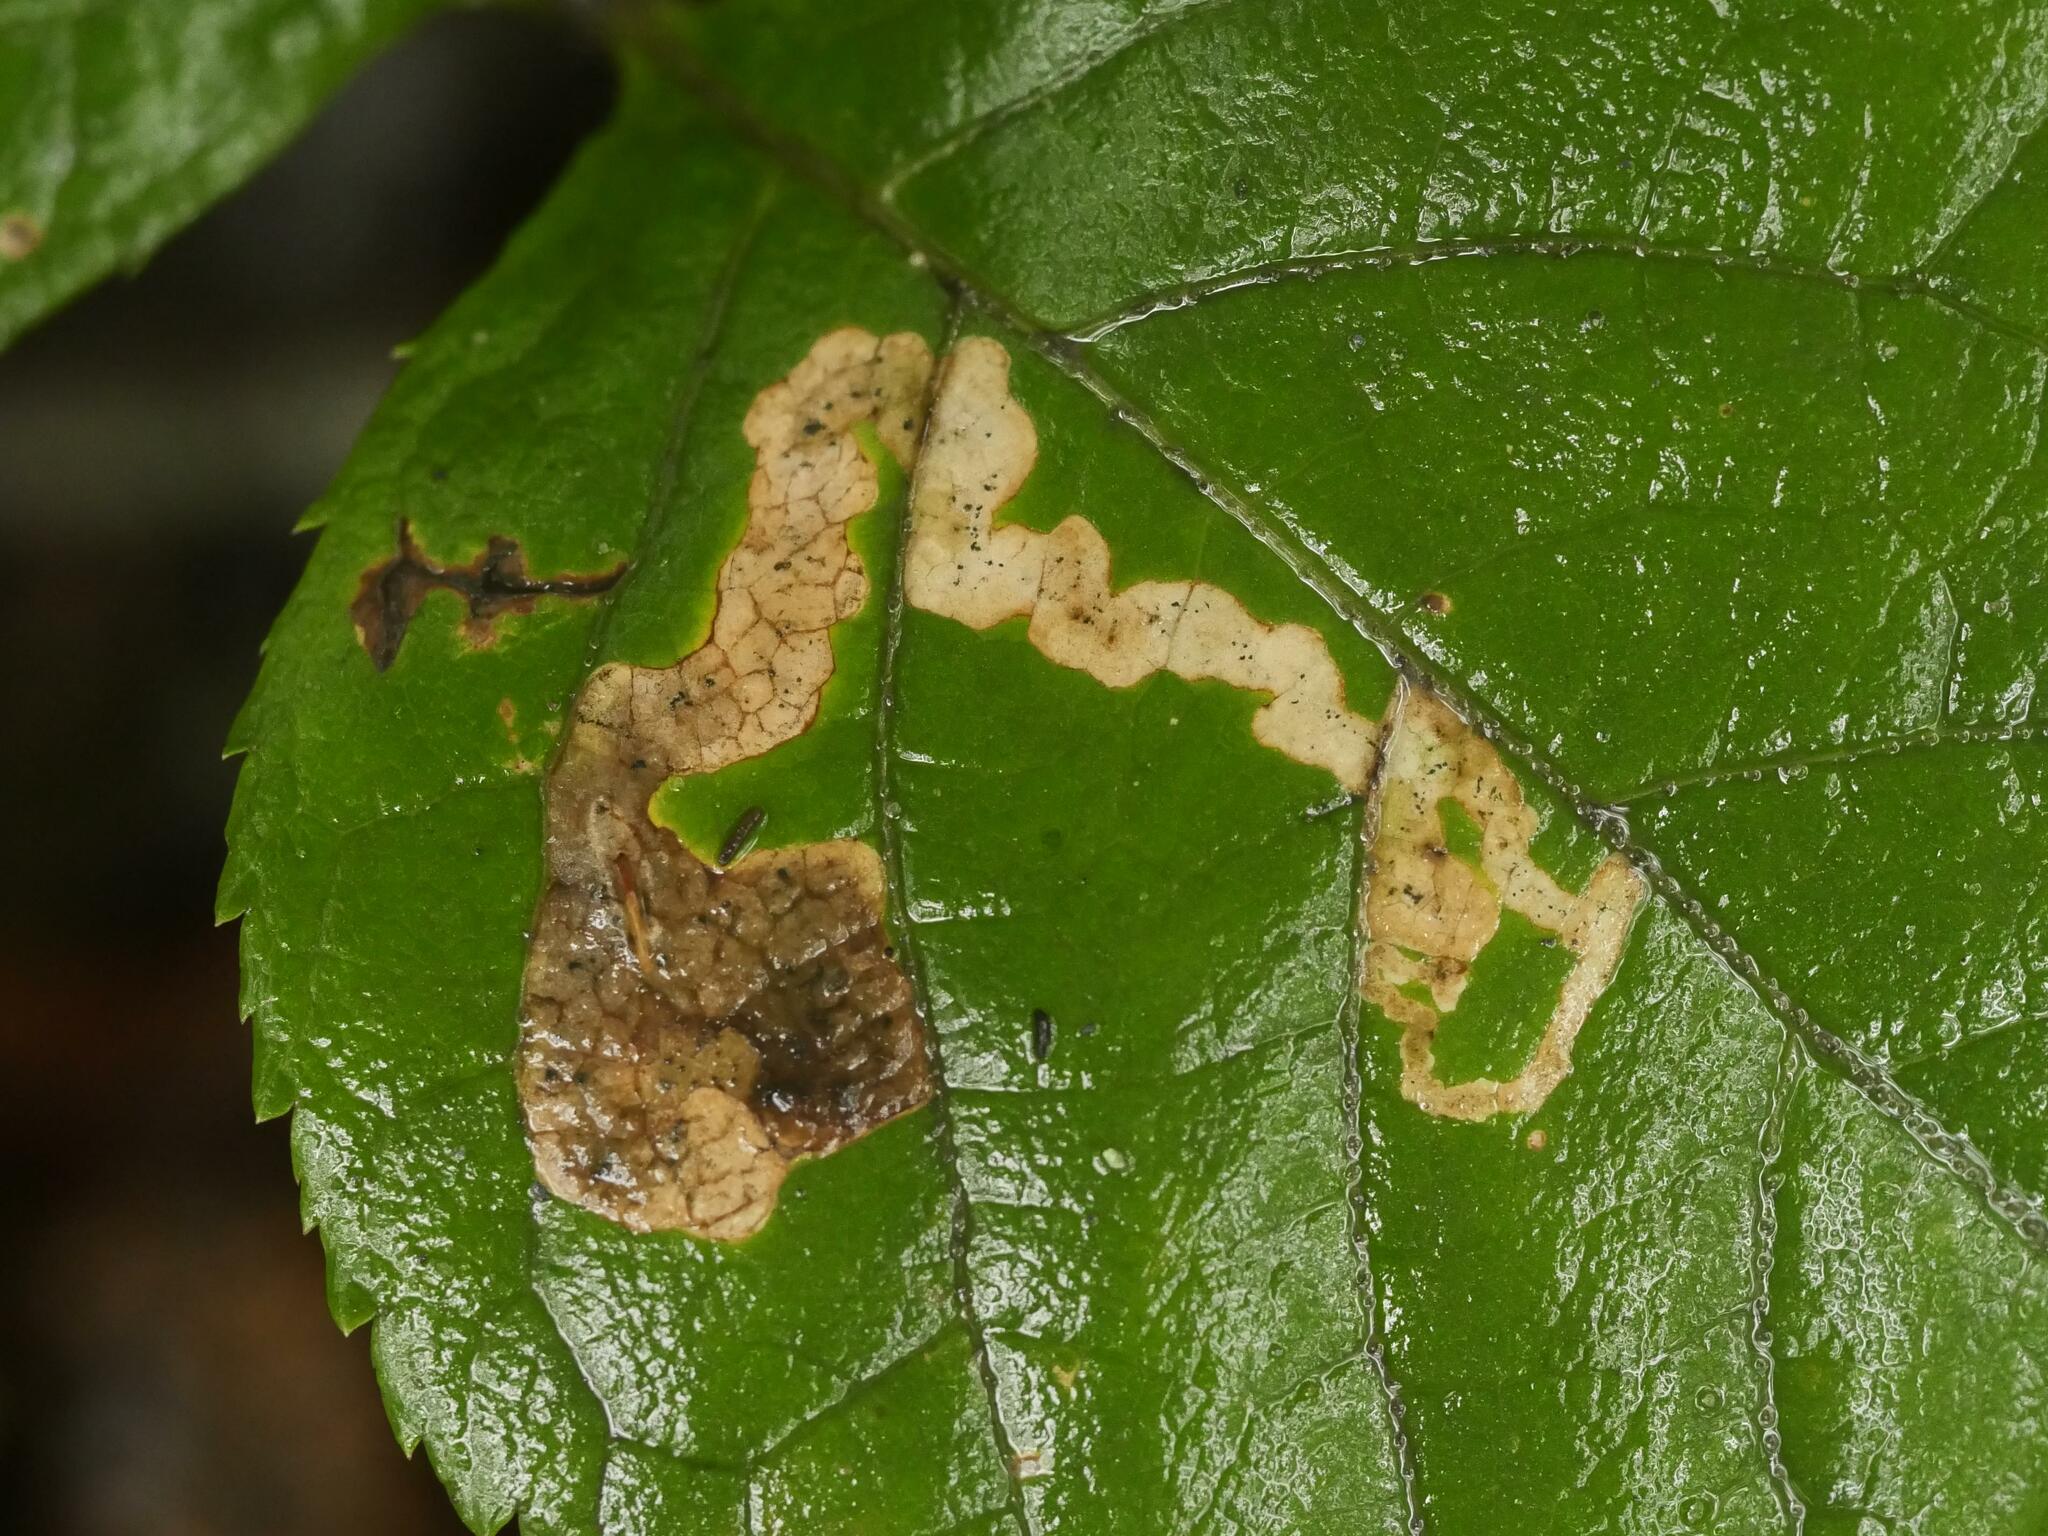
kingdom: Animalia
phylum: Arthropoda
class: Insecta
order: Diptera
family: Agromyzidae
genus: Phytomyza
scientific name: Phytomyza aralivora
